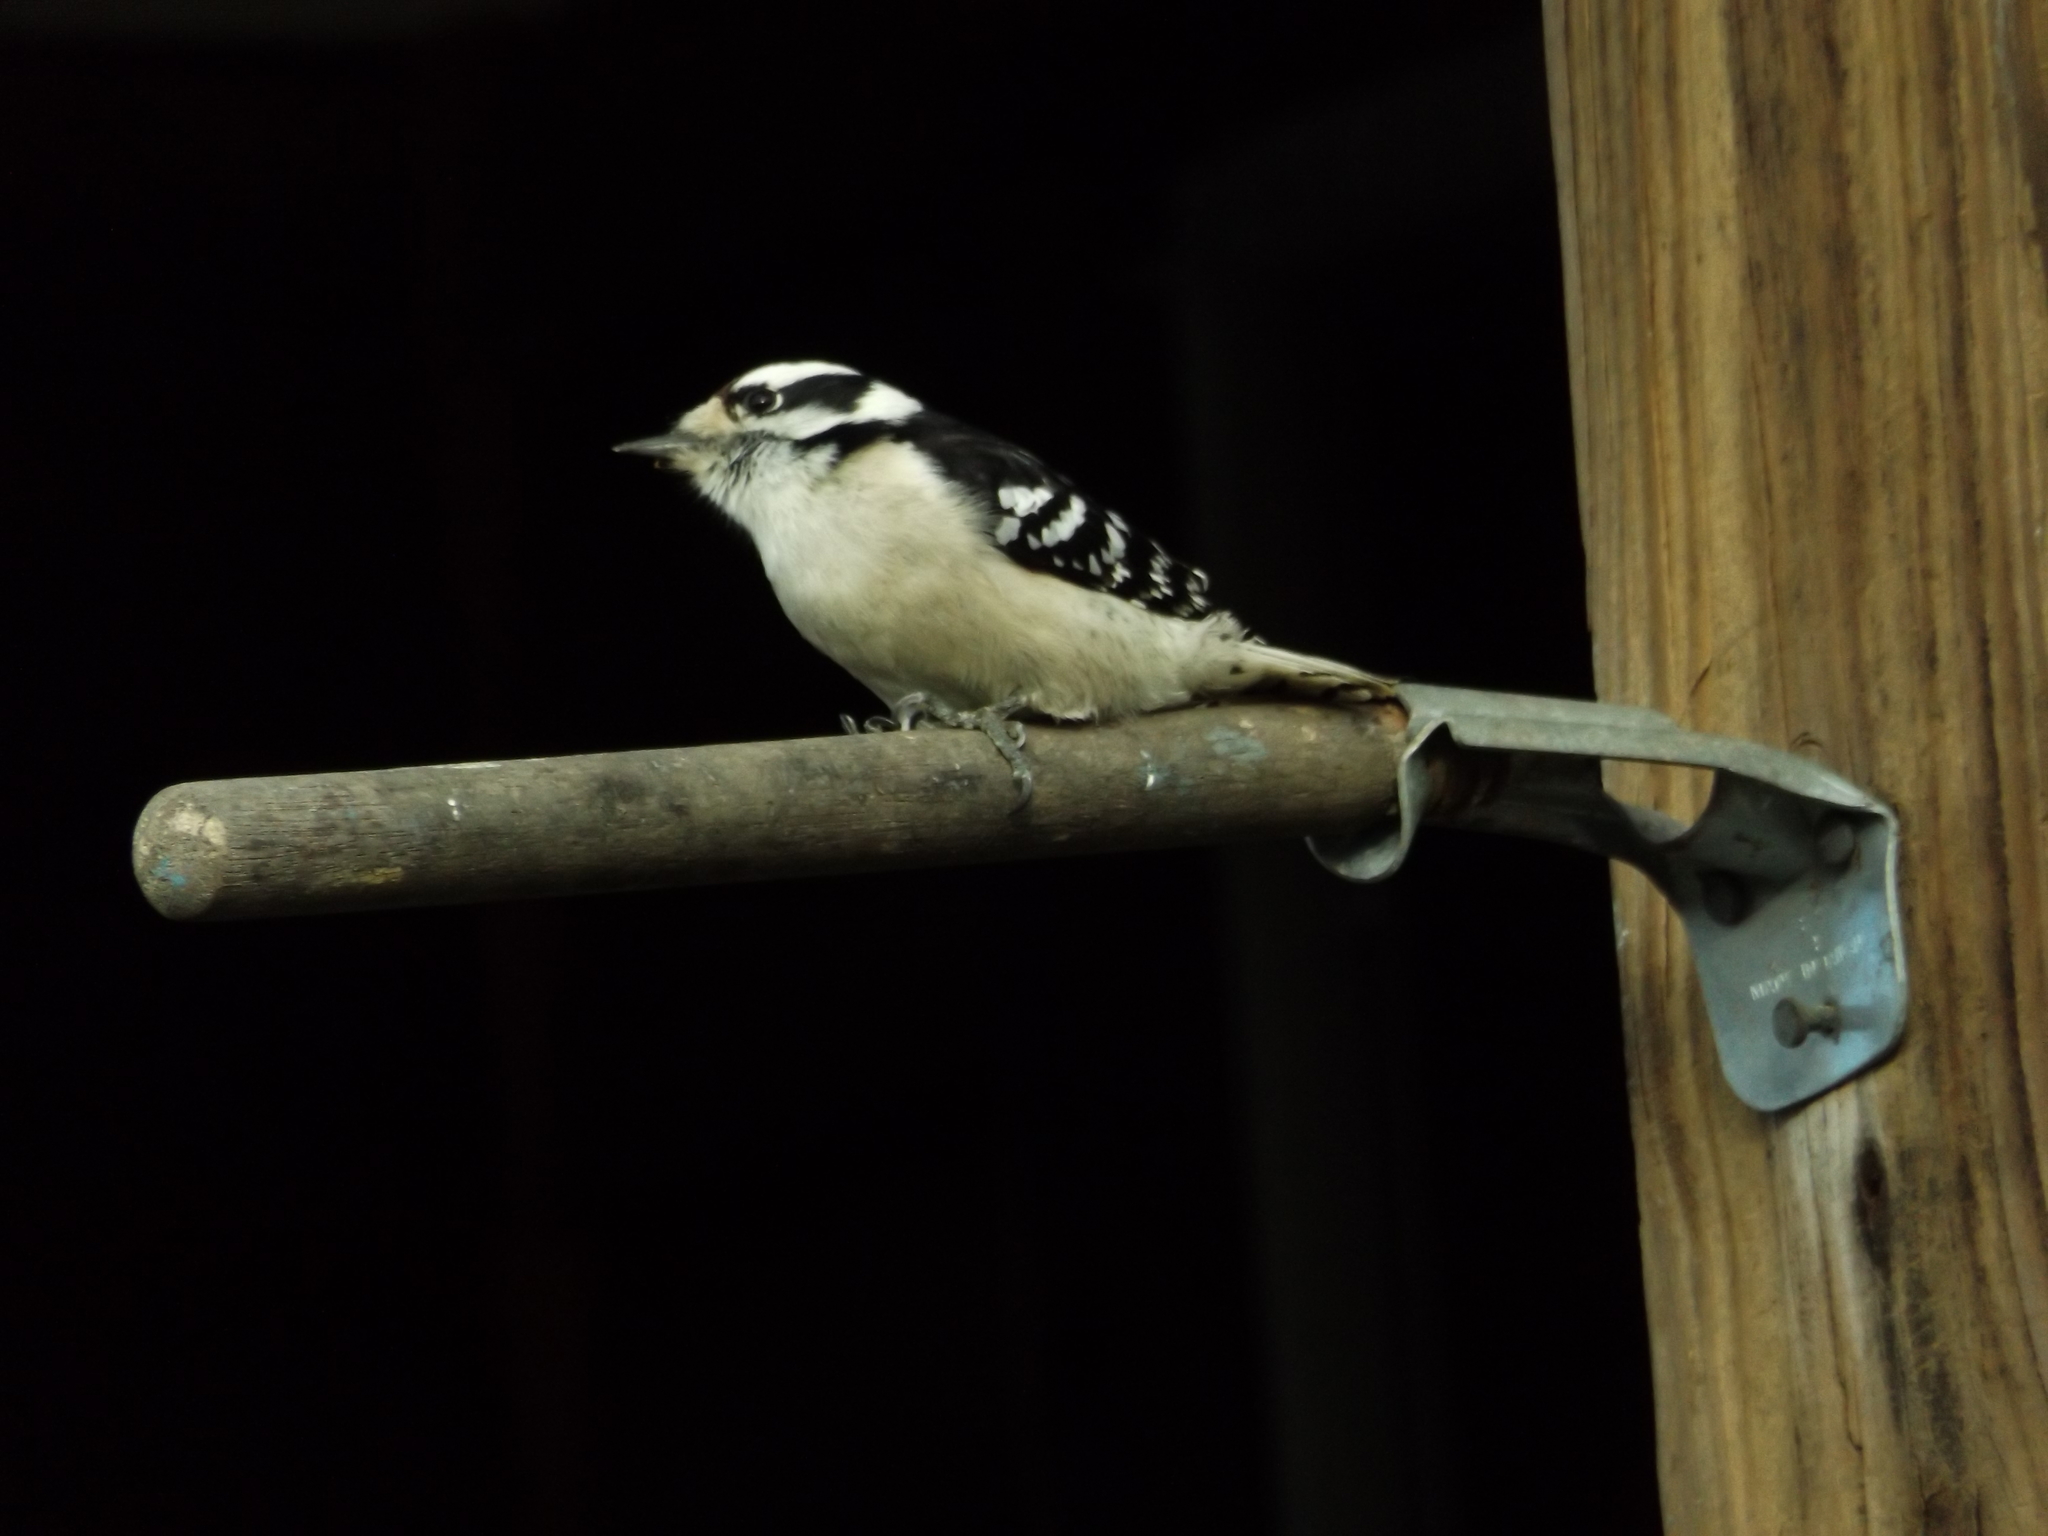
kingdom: Animalia
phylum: Chordata
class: Aves
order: Piciformes
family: Picidae
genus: Dryobates
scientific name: Dryobates pubescens
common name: Downy woodpecker
